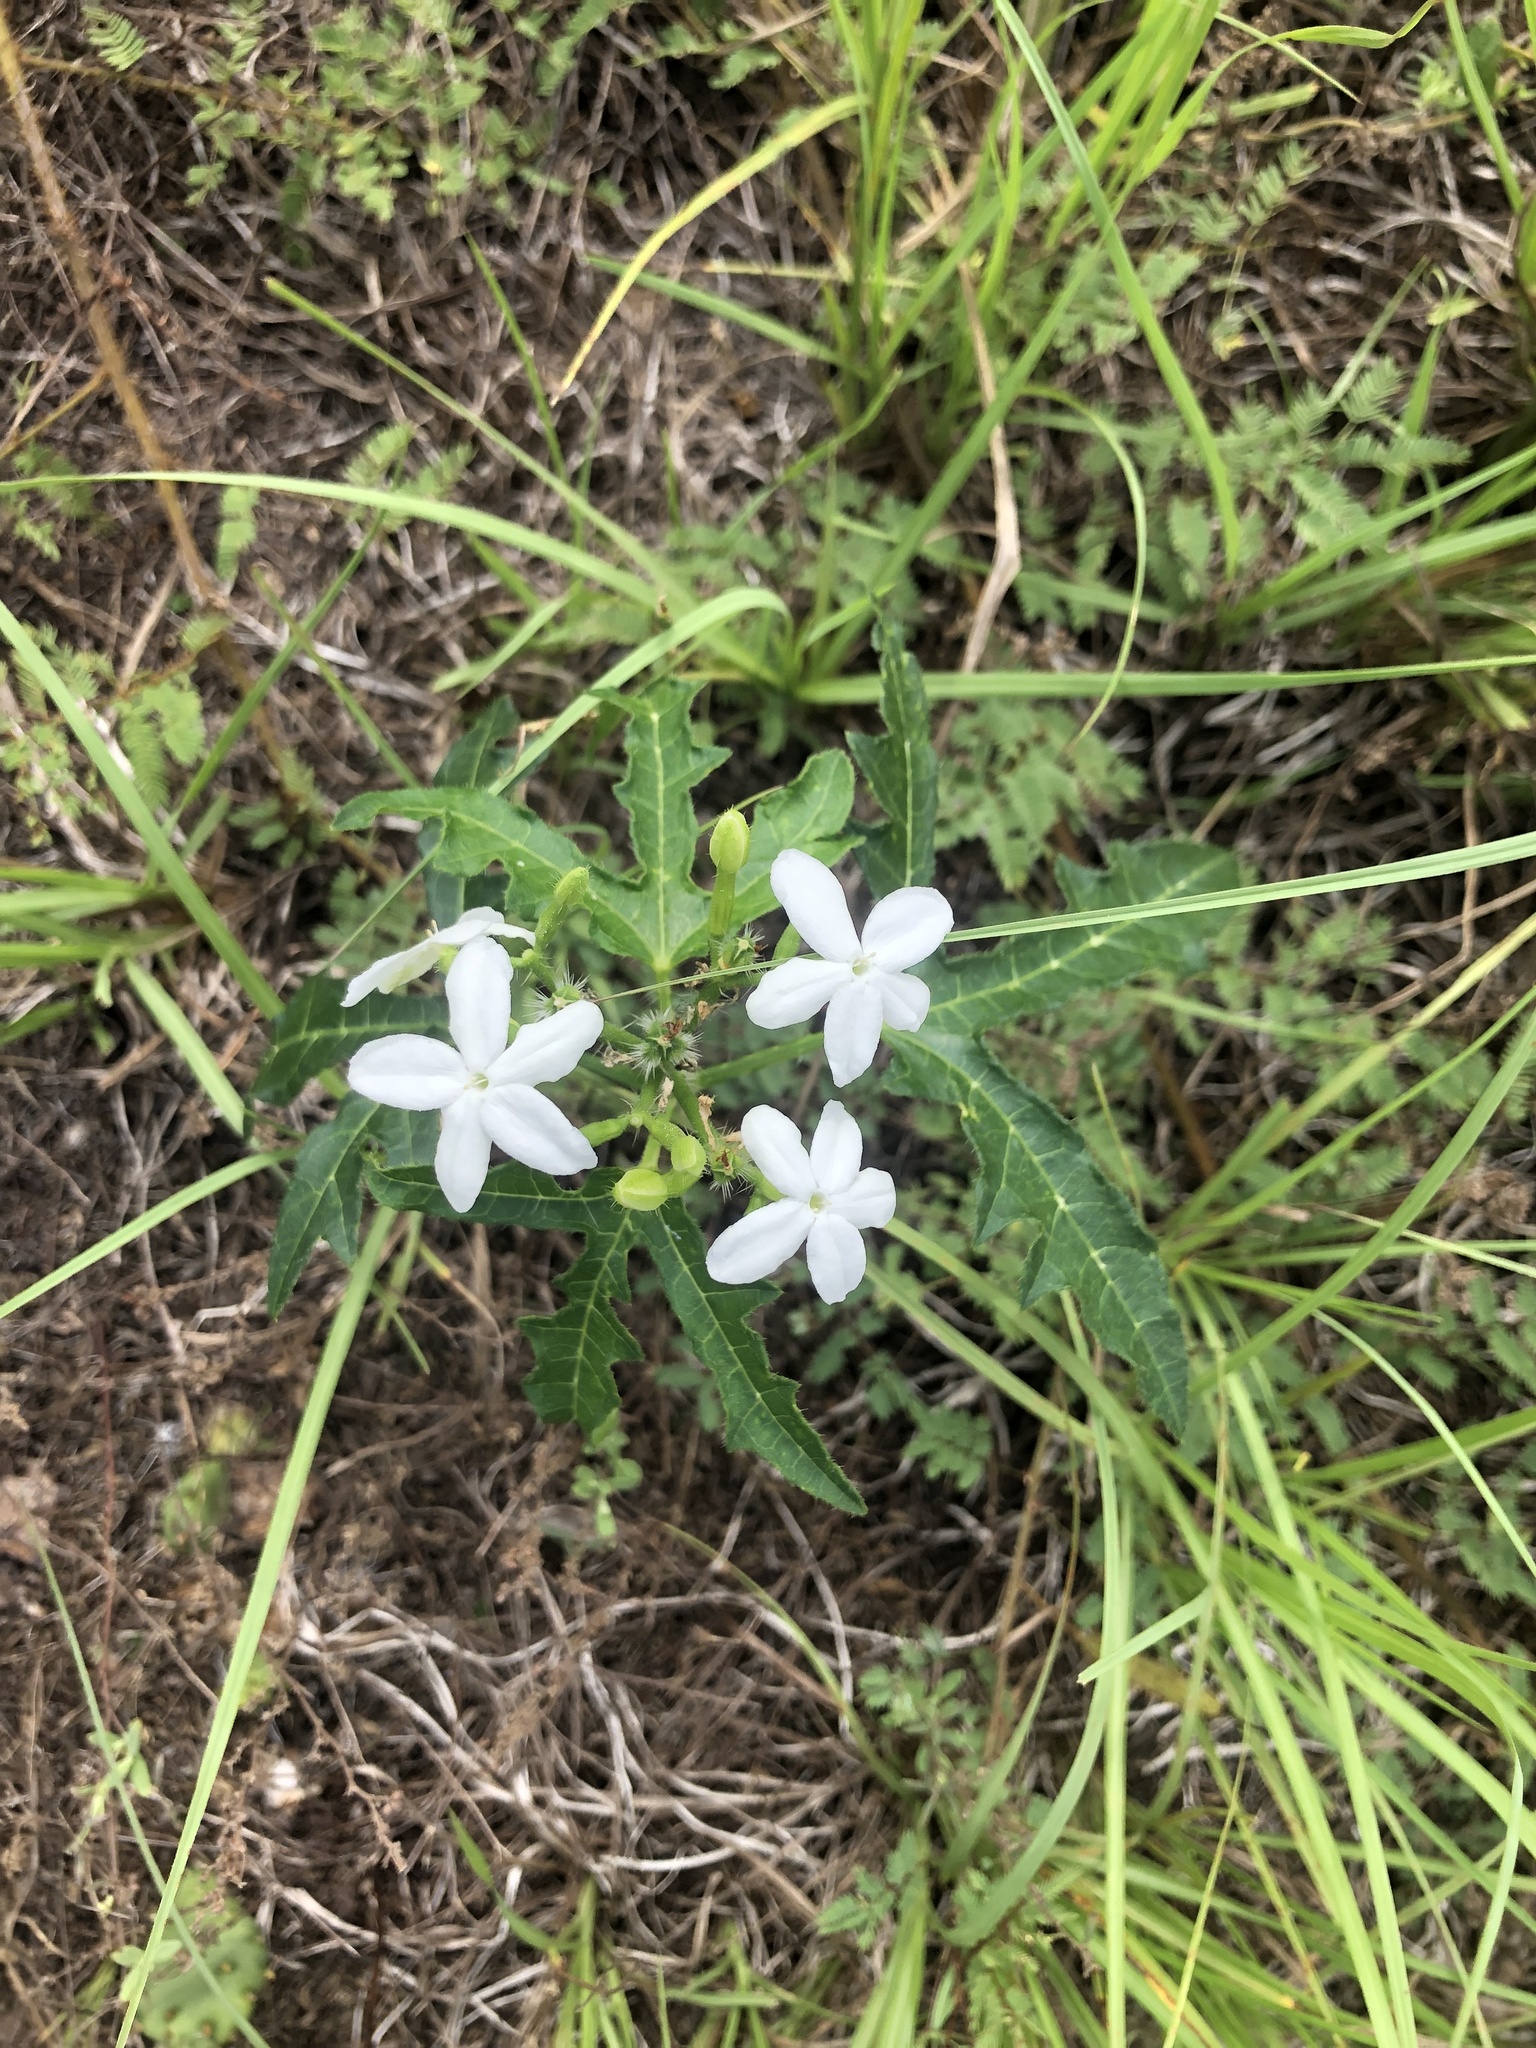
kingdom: Plantae
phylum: Tracheophyta
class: Magnoliopsida
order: Malpighiales
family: Euphorbiaceae
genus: Cnidoscolus
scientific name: Cnidoscolus stimulosus
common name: Bull-nettle
